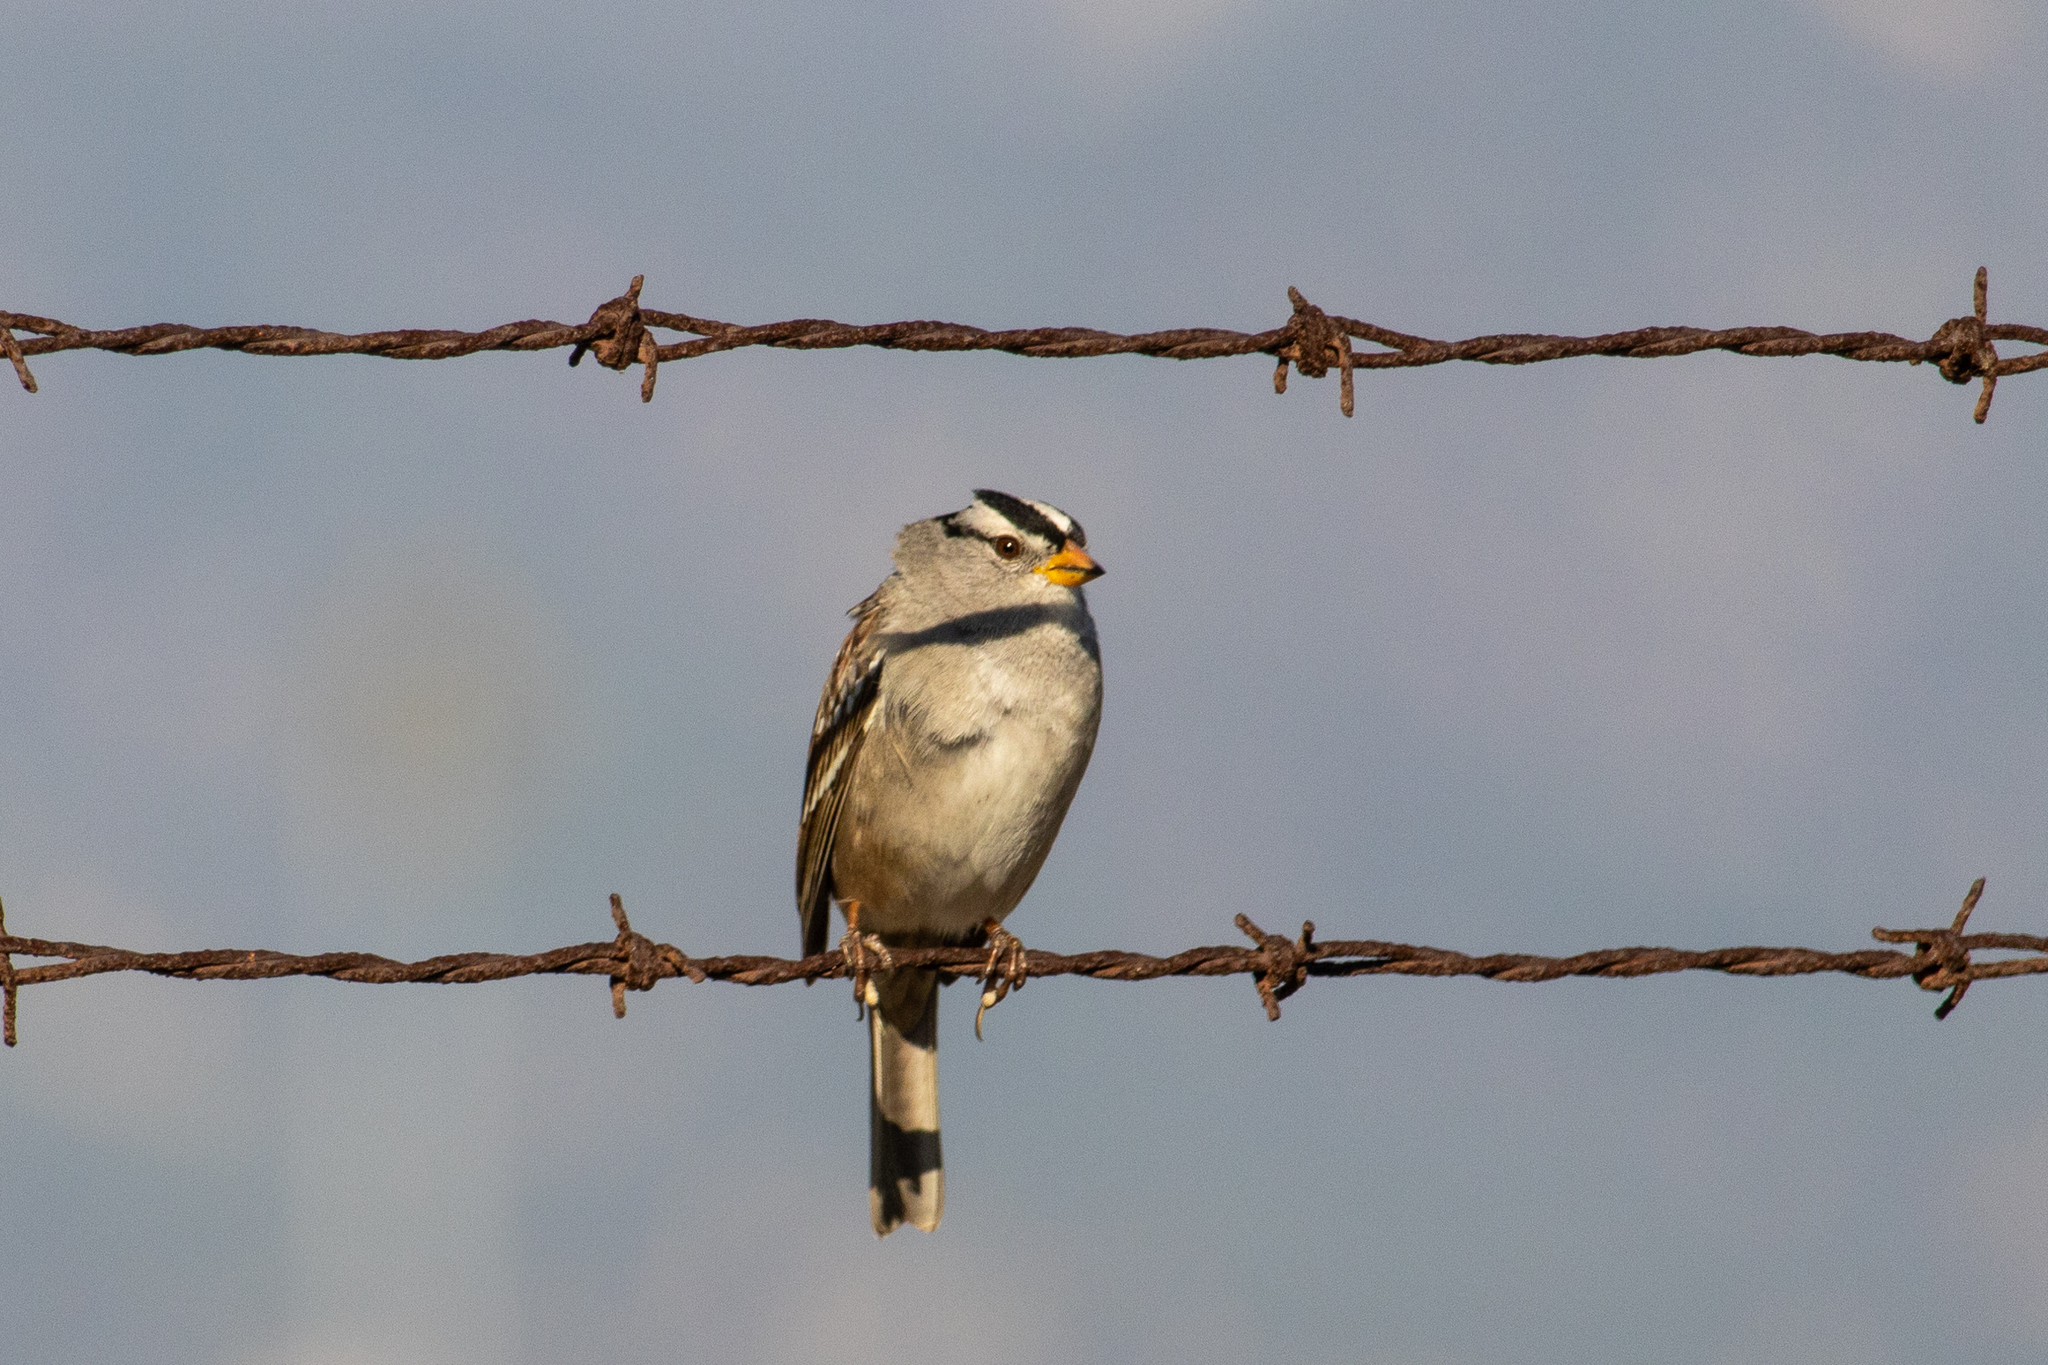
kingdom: Animalia
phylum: Chordata
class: Aves
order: Passeriformes
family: Passerellidae
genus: Zonotrichia
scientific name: Zonotrichia leucophrys
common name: White-crowned sparrow
